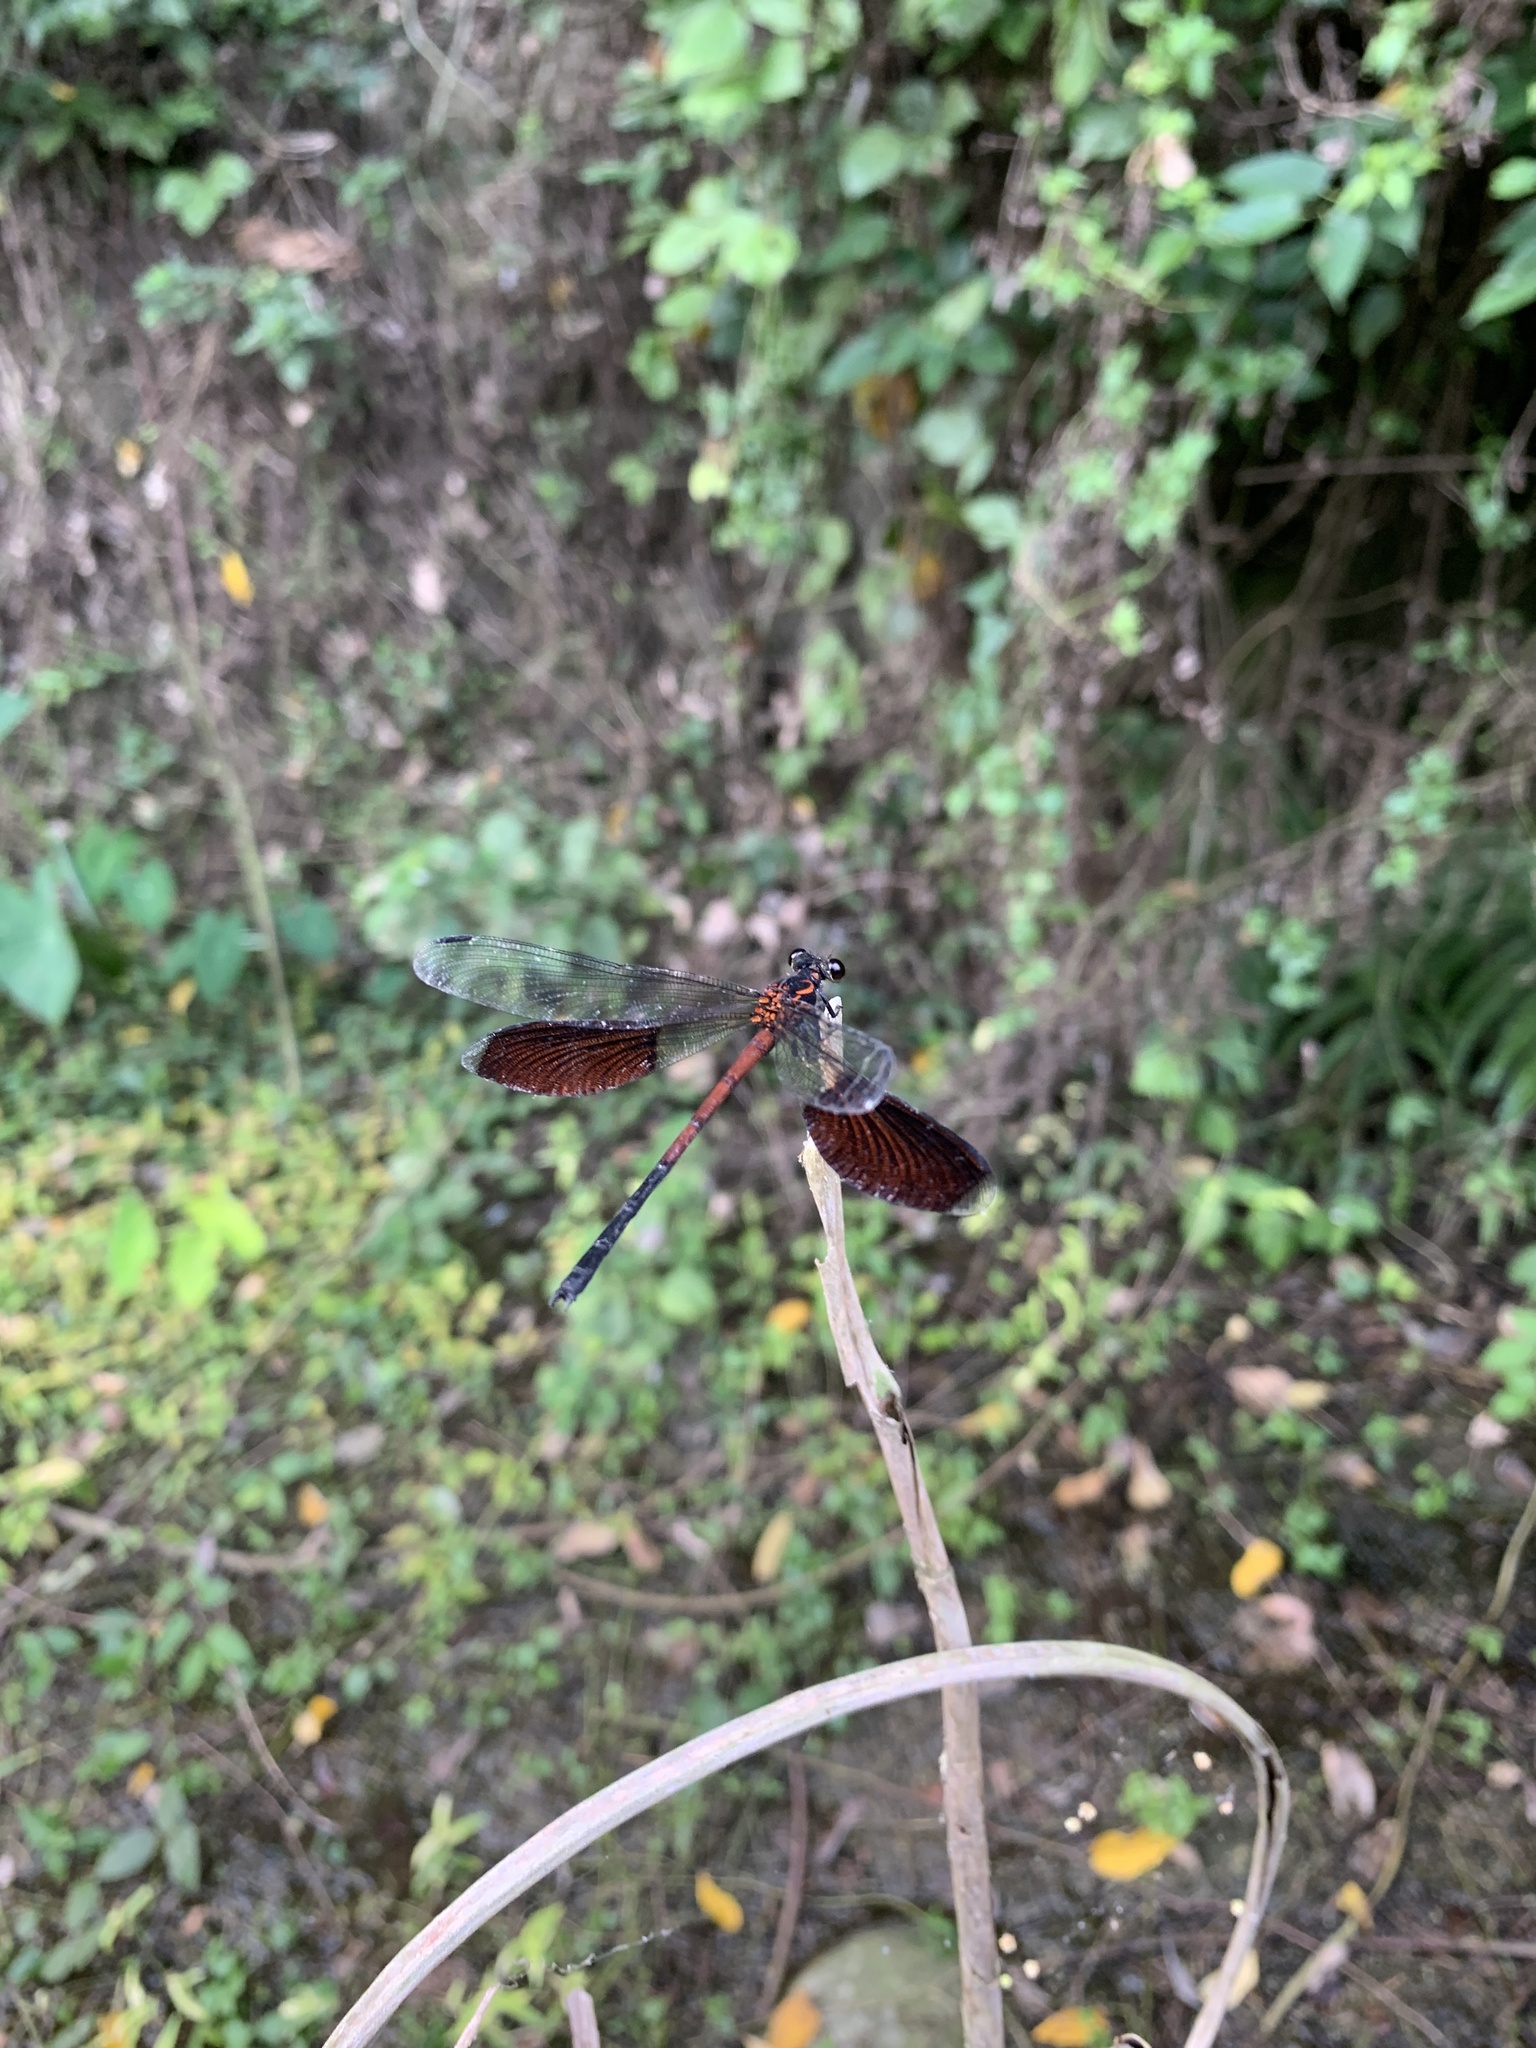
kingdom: Animalia
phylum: Arthropoda
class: Insecta
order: Odonata
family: Euphaeidae
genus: Euphaea
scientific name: Euphaea formosa
